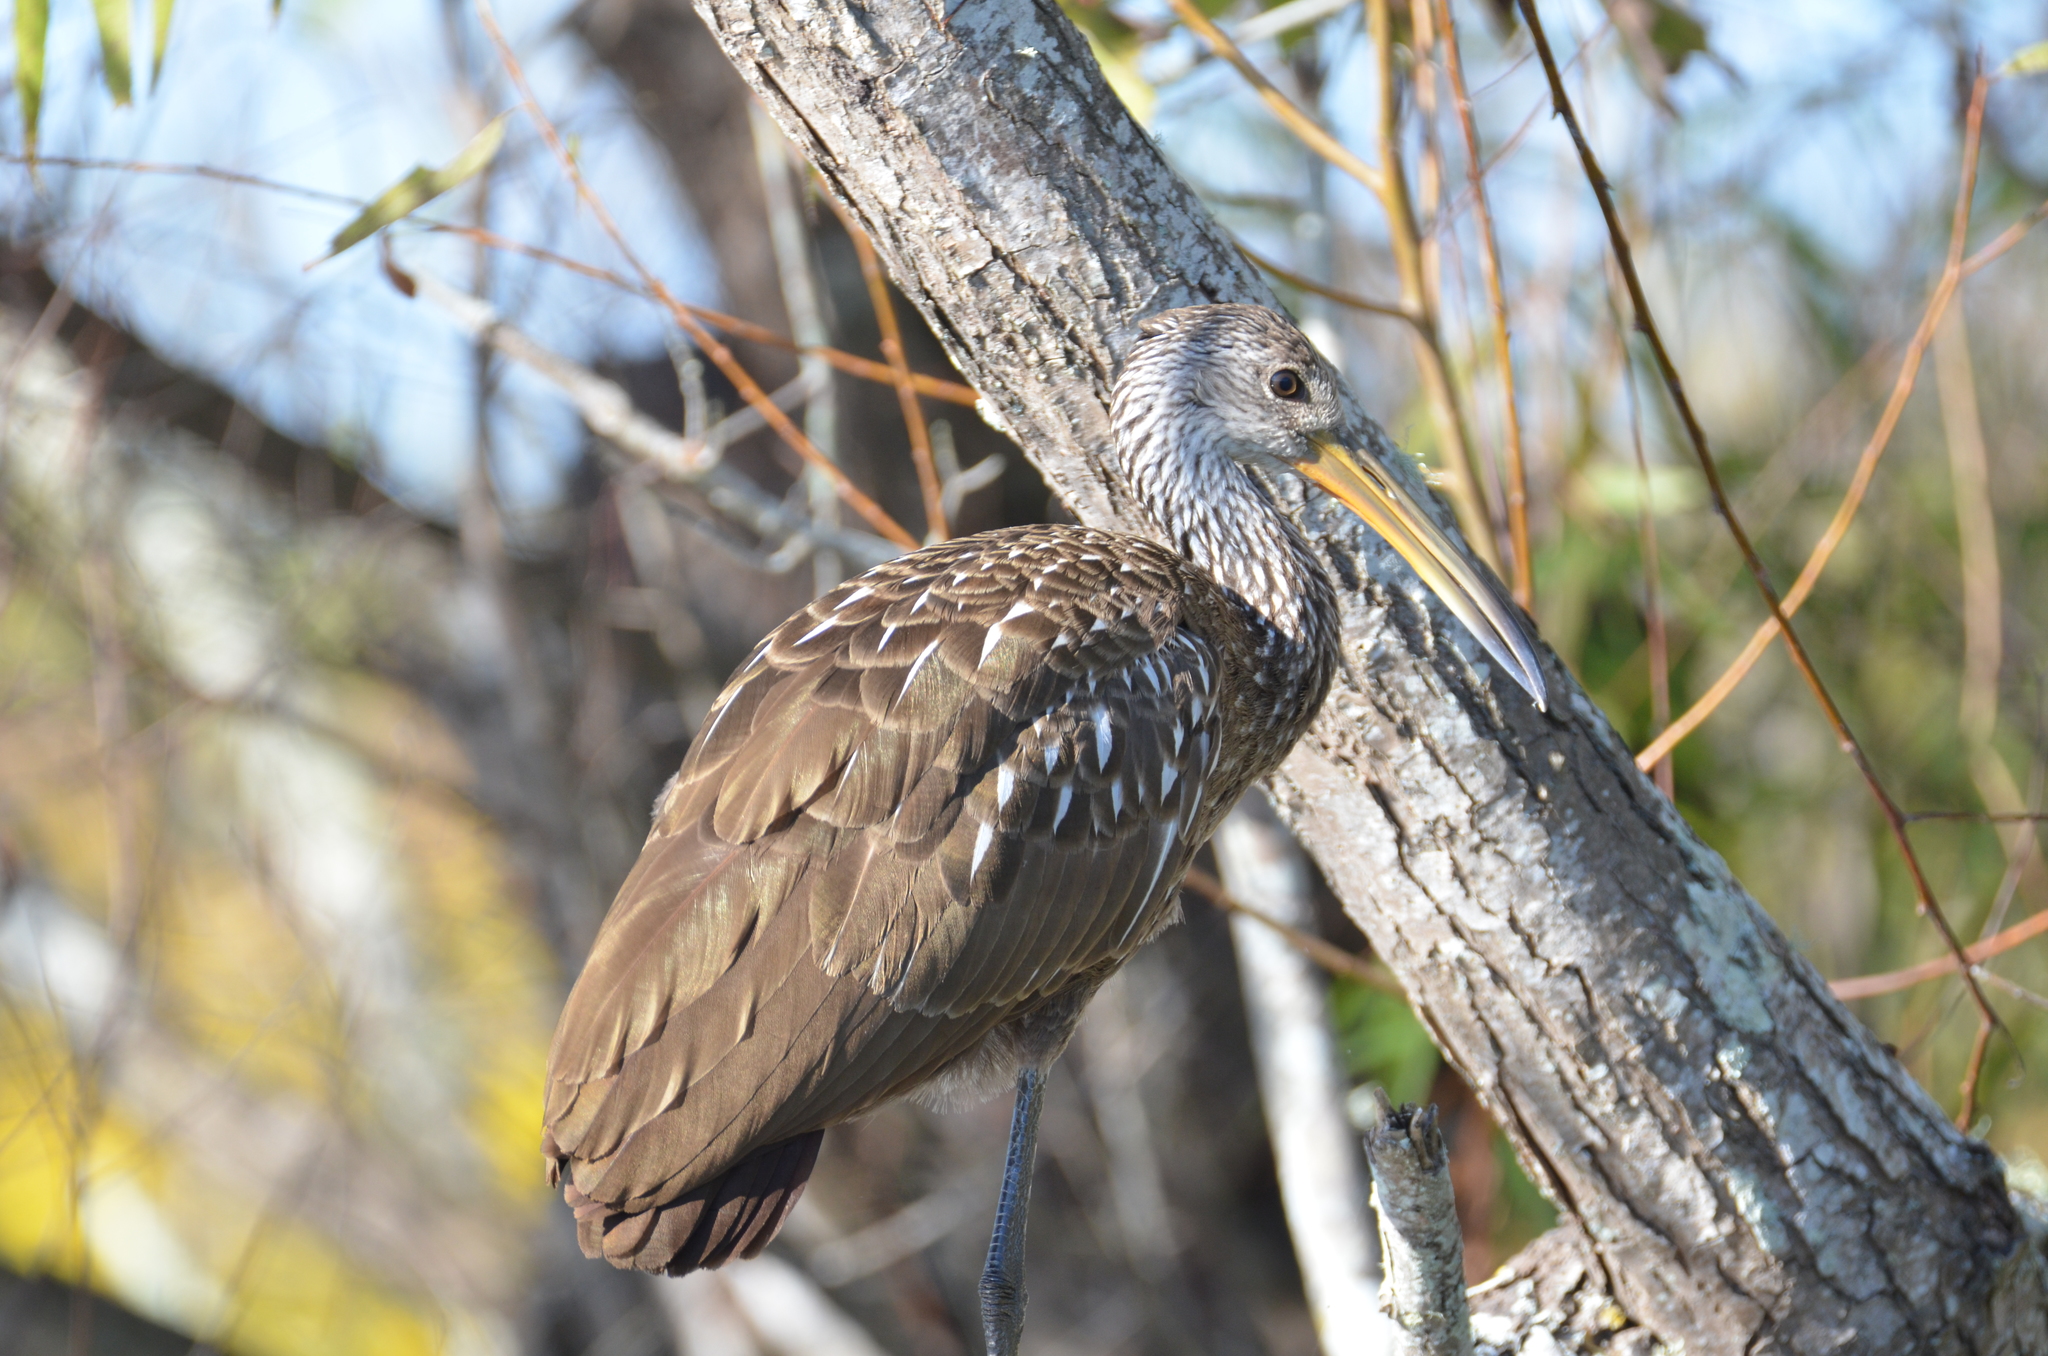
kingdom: Animalia
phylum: Chordata
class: Aves
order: Gruiformes
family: Aramidae
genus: Aramus
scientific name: Aramus guarauna
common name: Limpkin
